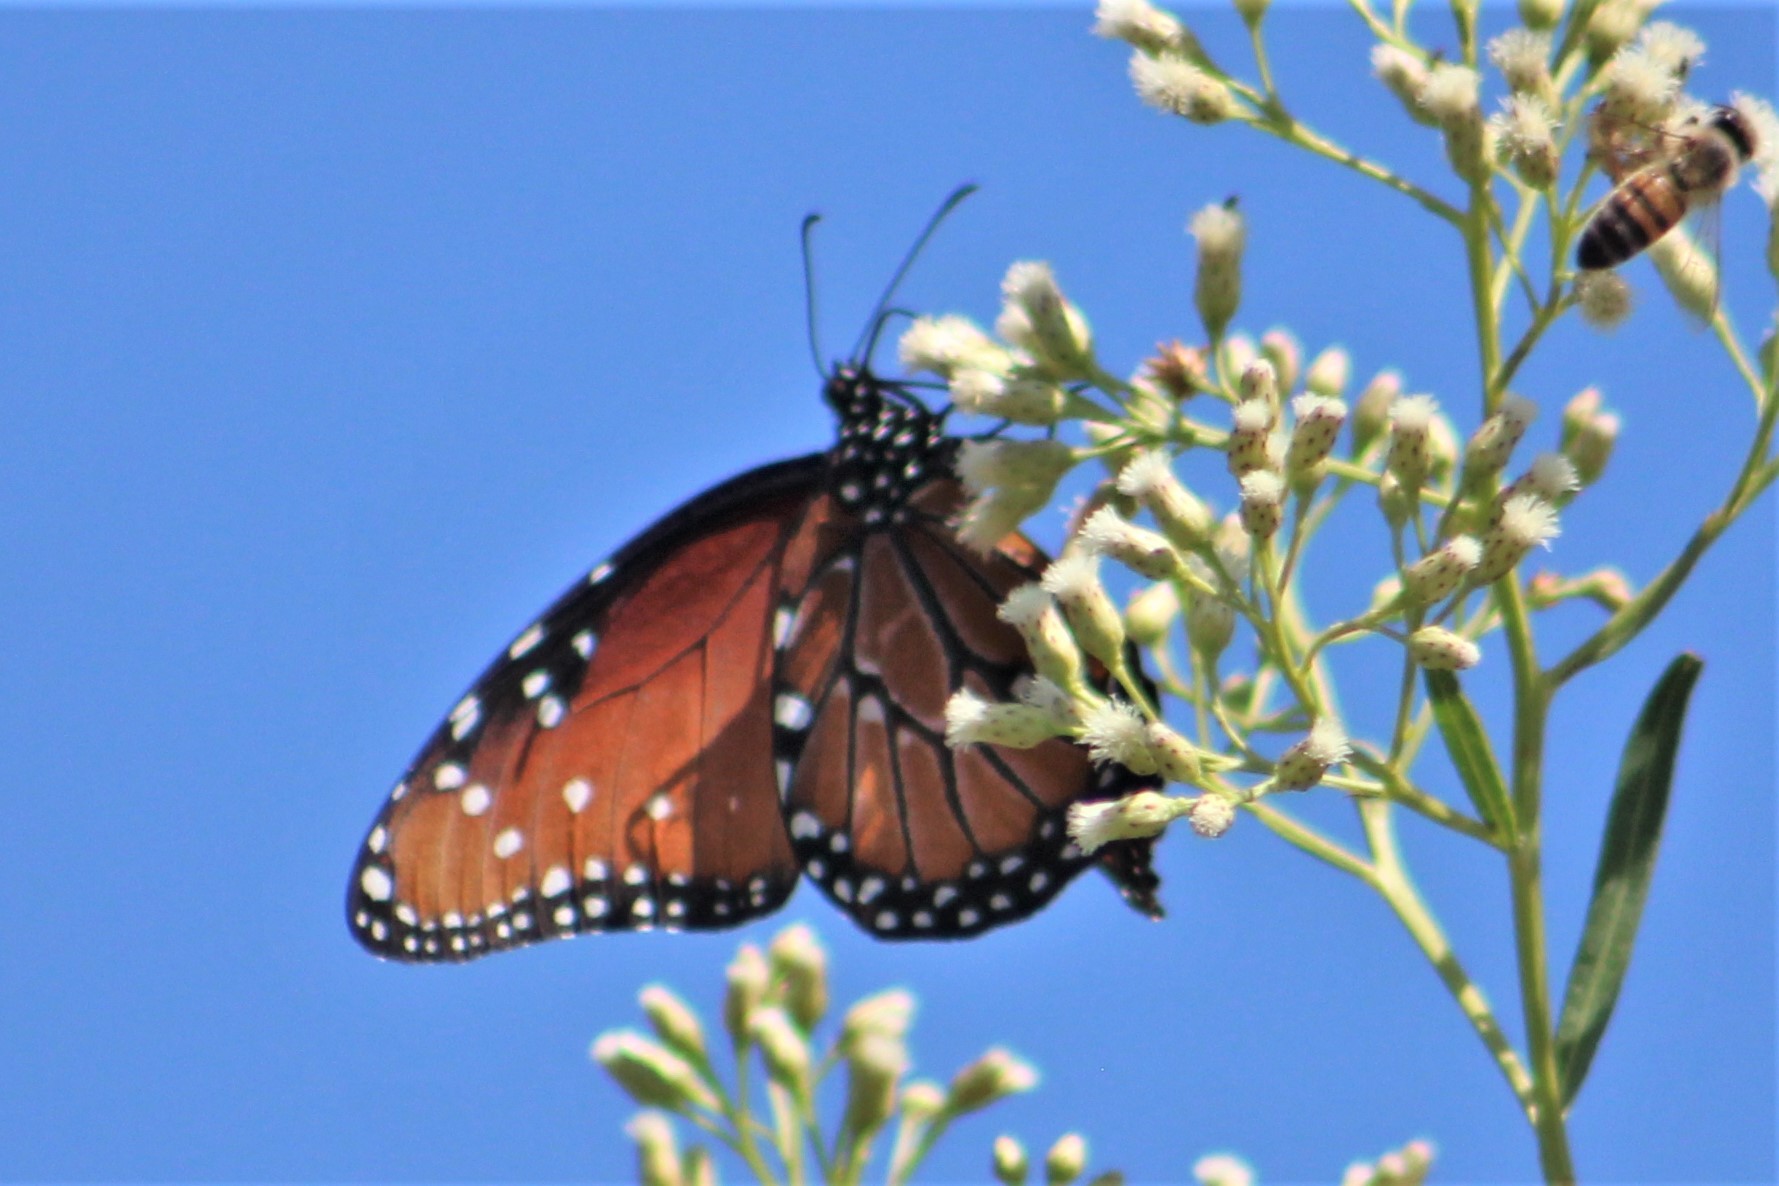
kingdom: Animalia
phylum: Arthropoda
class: Insecta
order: Lepidoptera
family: Nymphalidae
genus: Danaus
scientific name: Danaus gilippus
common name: Queen
